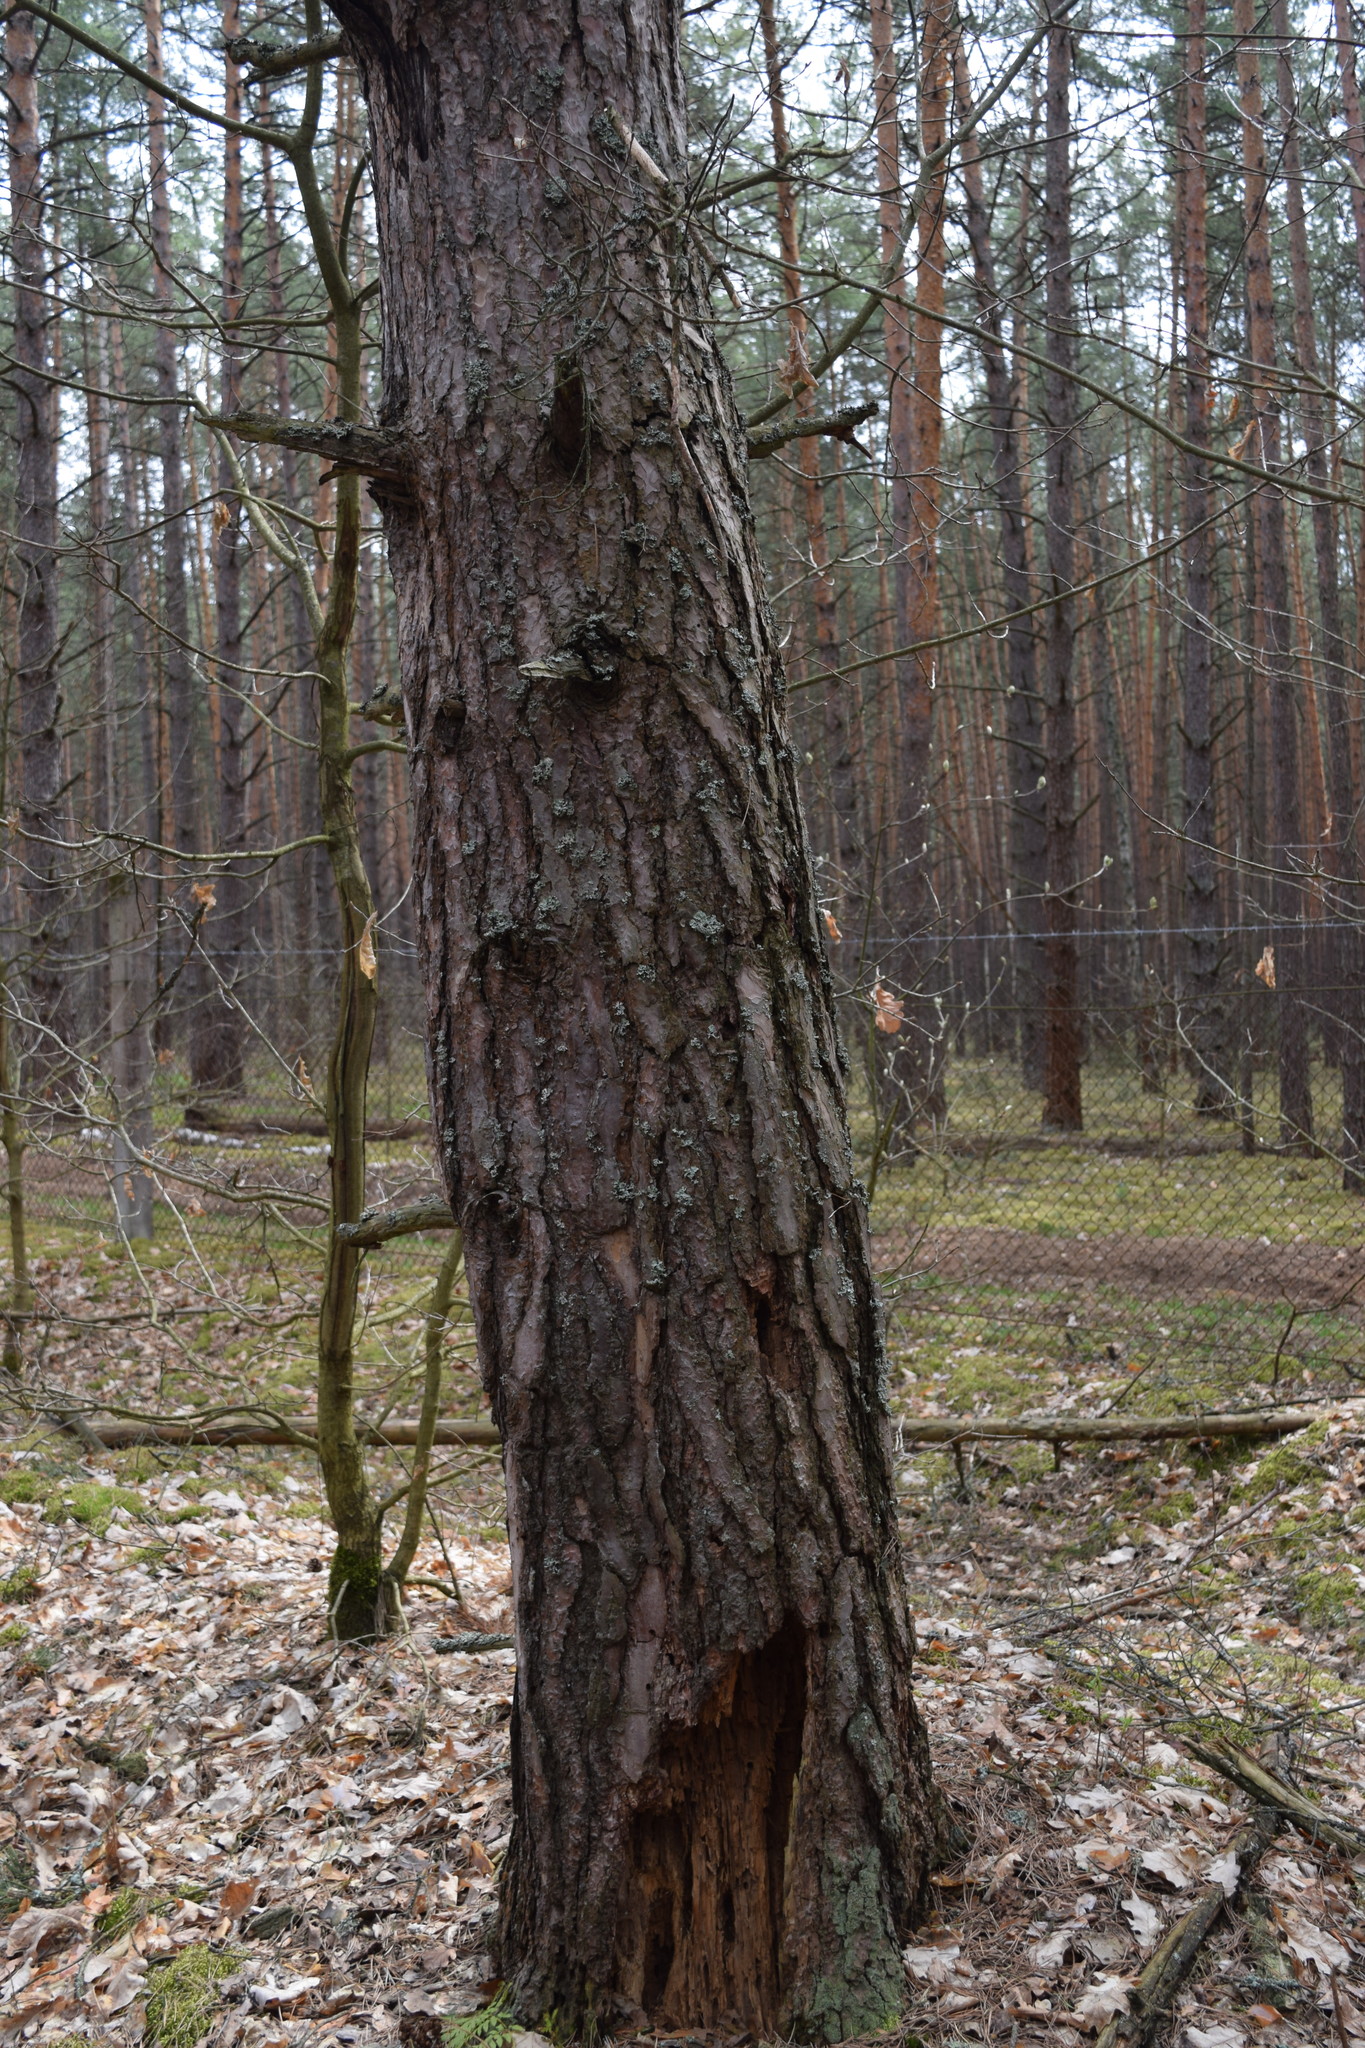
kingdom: Plantae
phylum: Tracheophyta
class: Pinopsida
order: Pinales
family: Pinaceae
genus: Pinus
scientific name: Pinus sylvestris
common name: Scots pine
